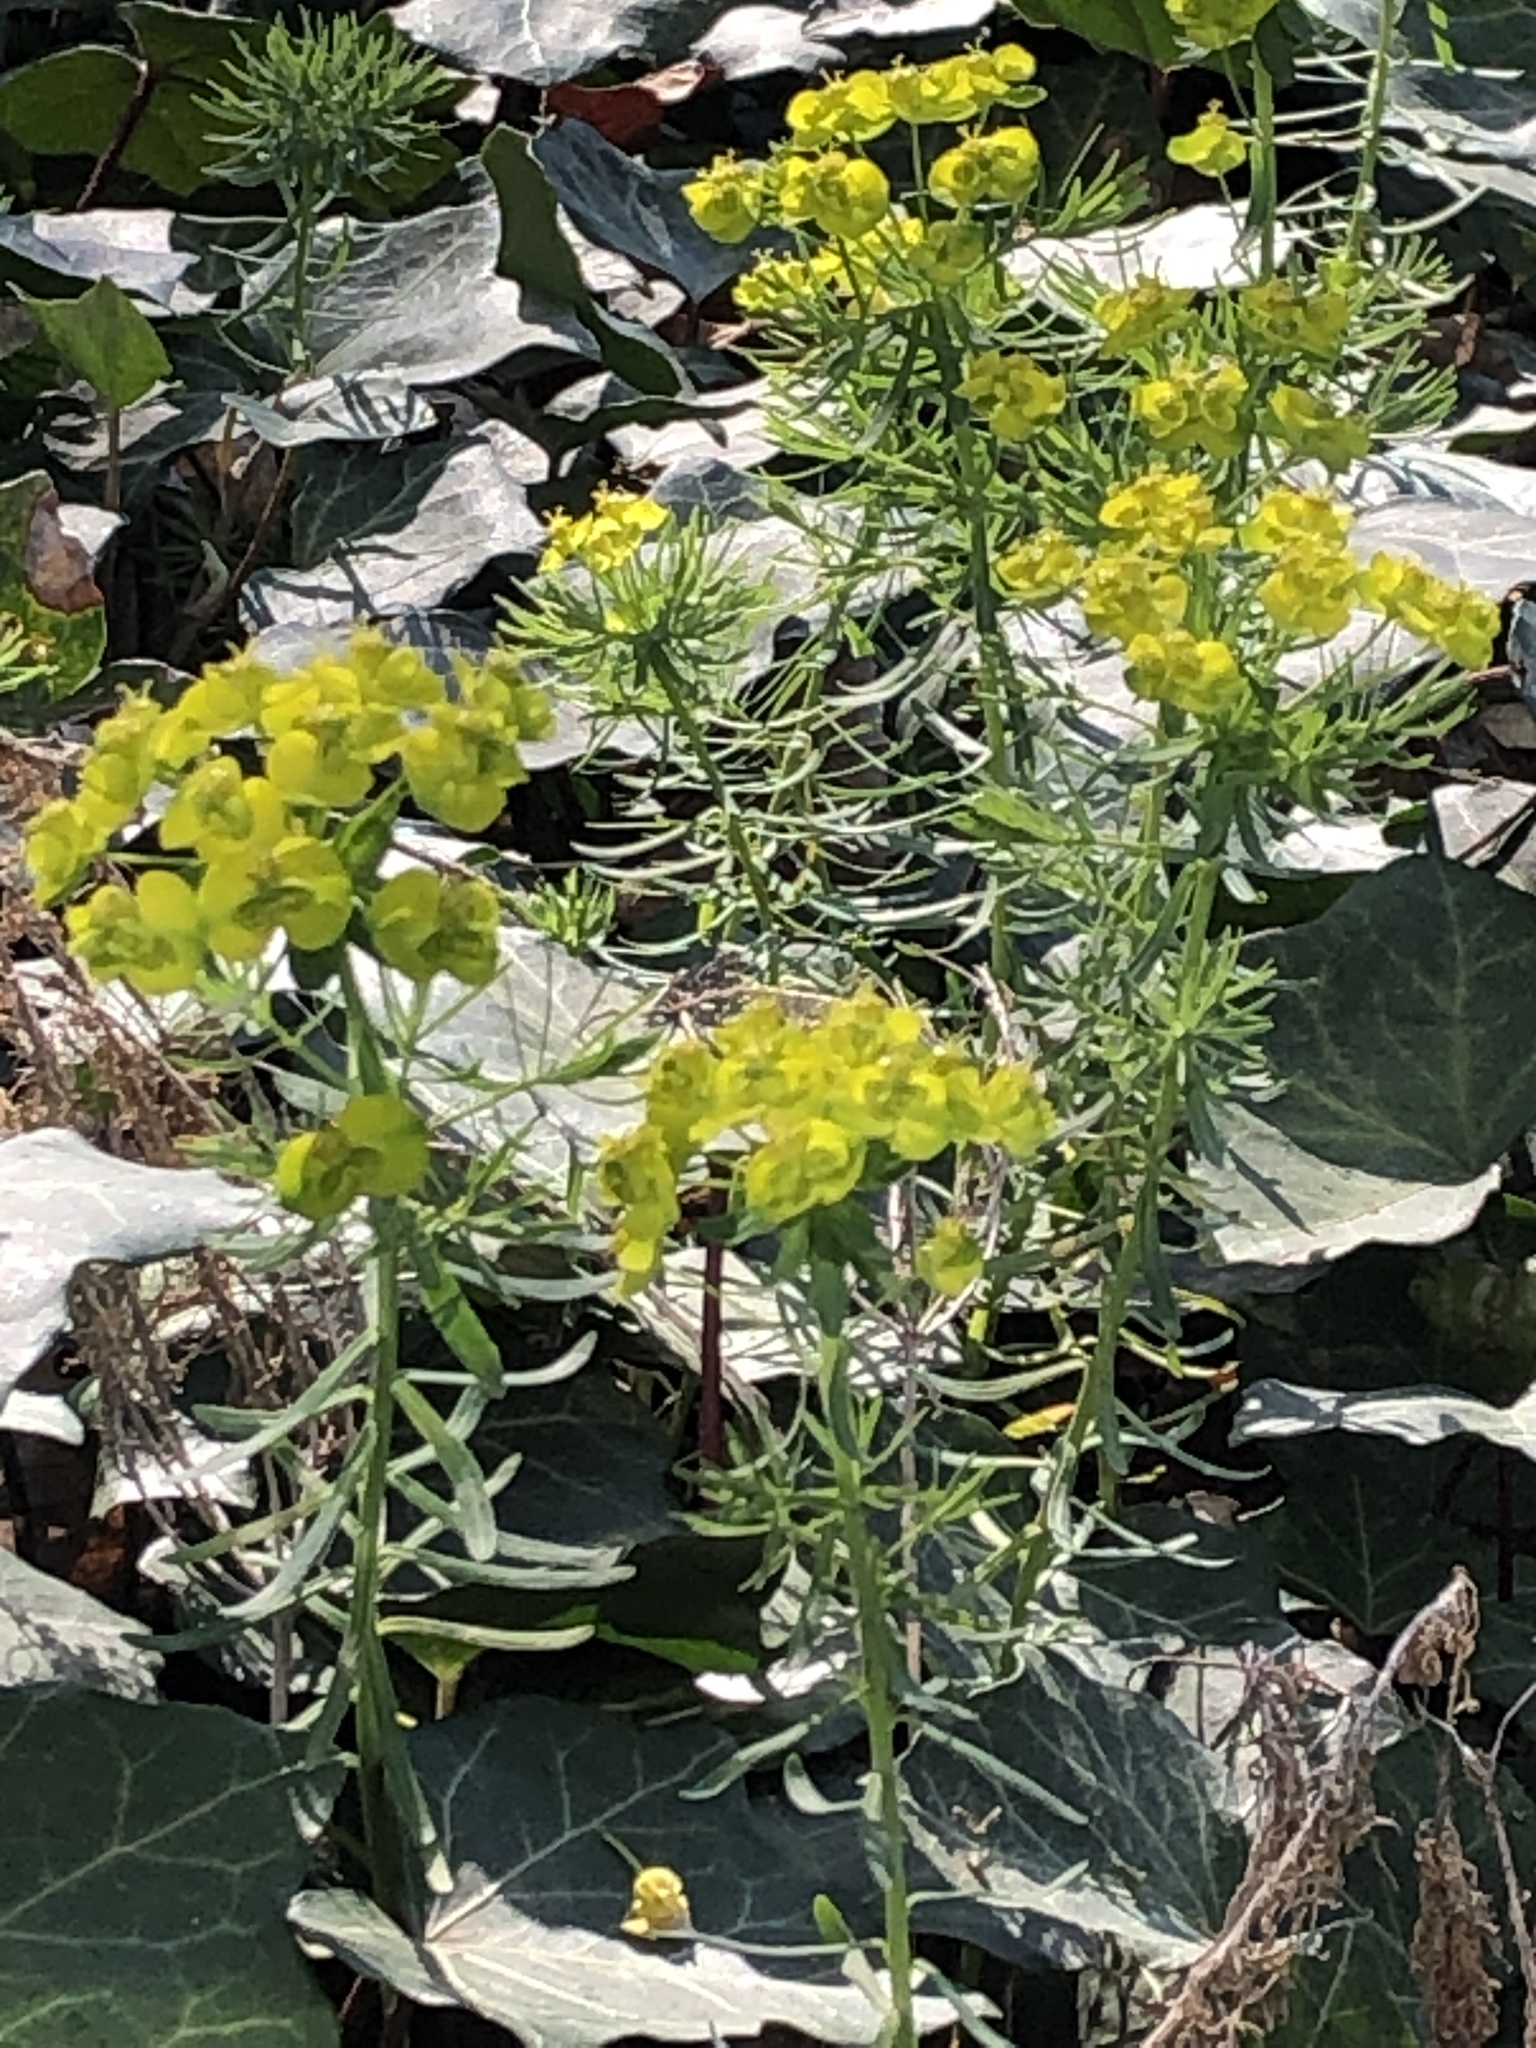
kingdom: Plantae
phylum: Tracheophyta
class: Magnoliopsida
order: Malpighiales
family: Euphorbiaceae
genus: Euphorbia
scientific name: Euphorbia cyparissias
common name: Cypress spurge
